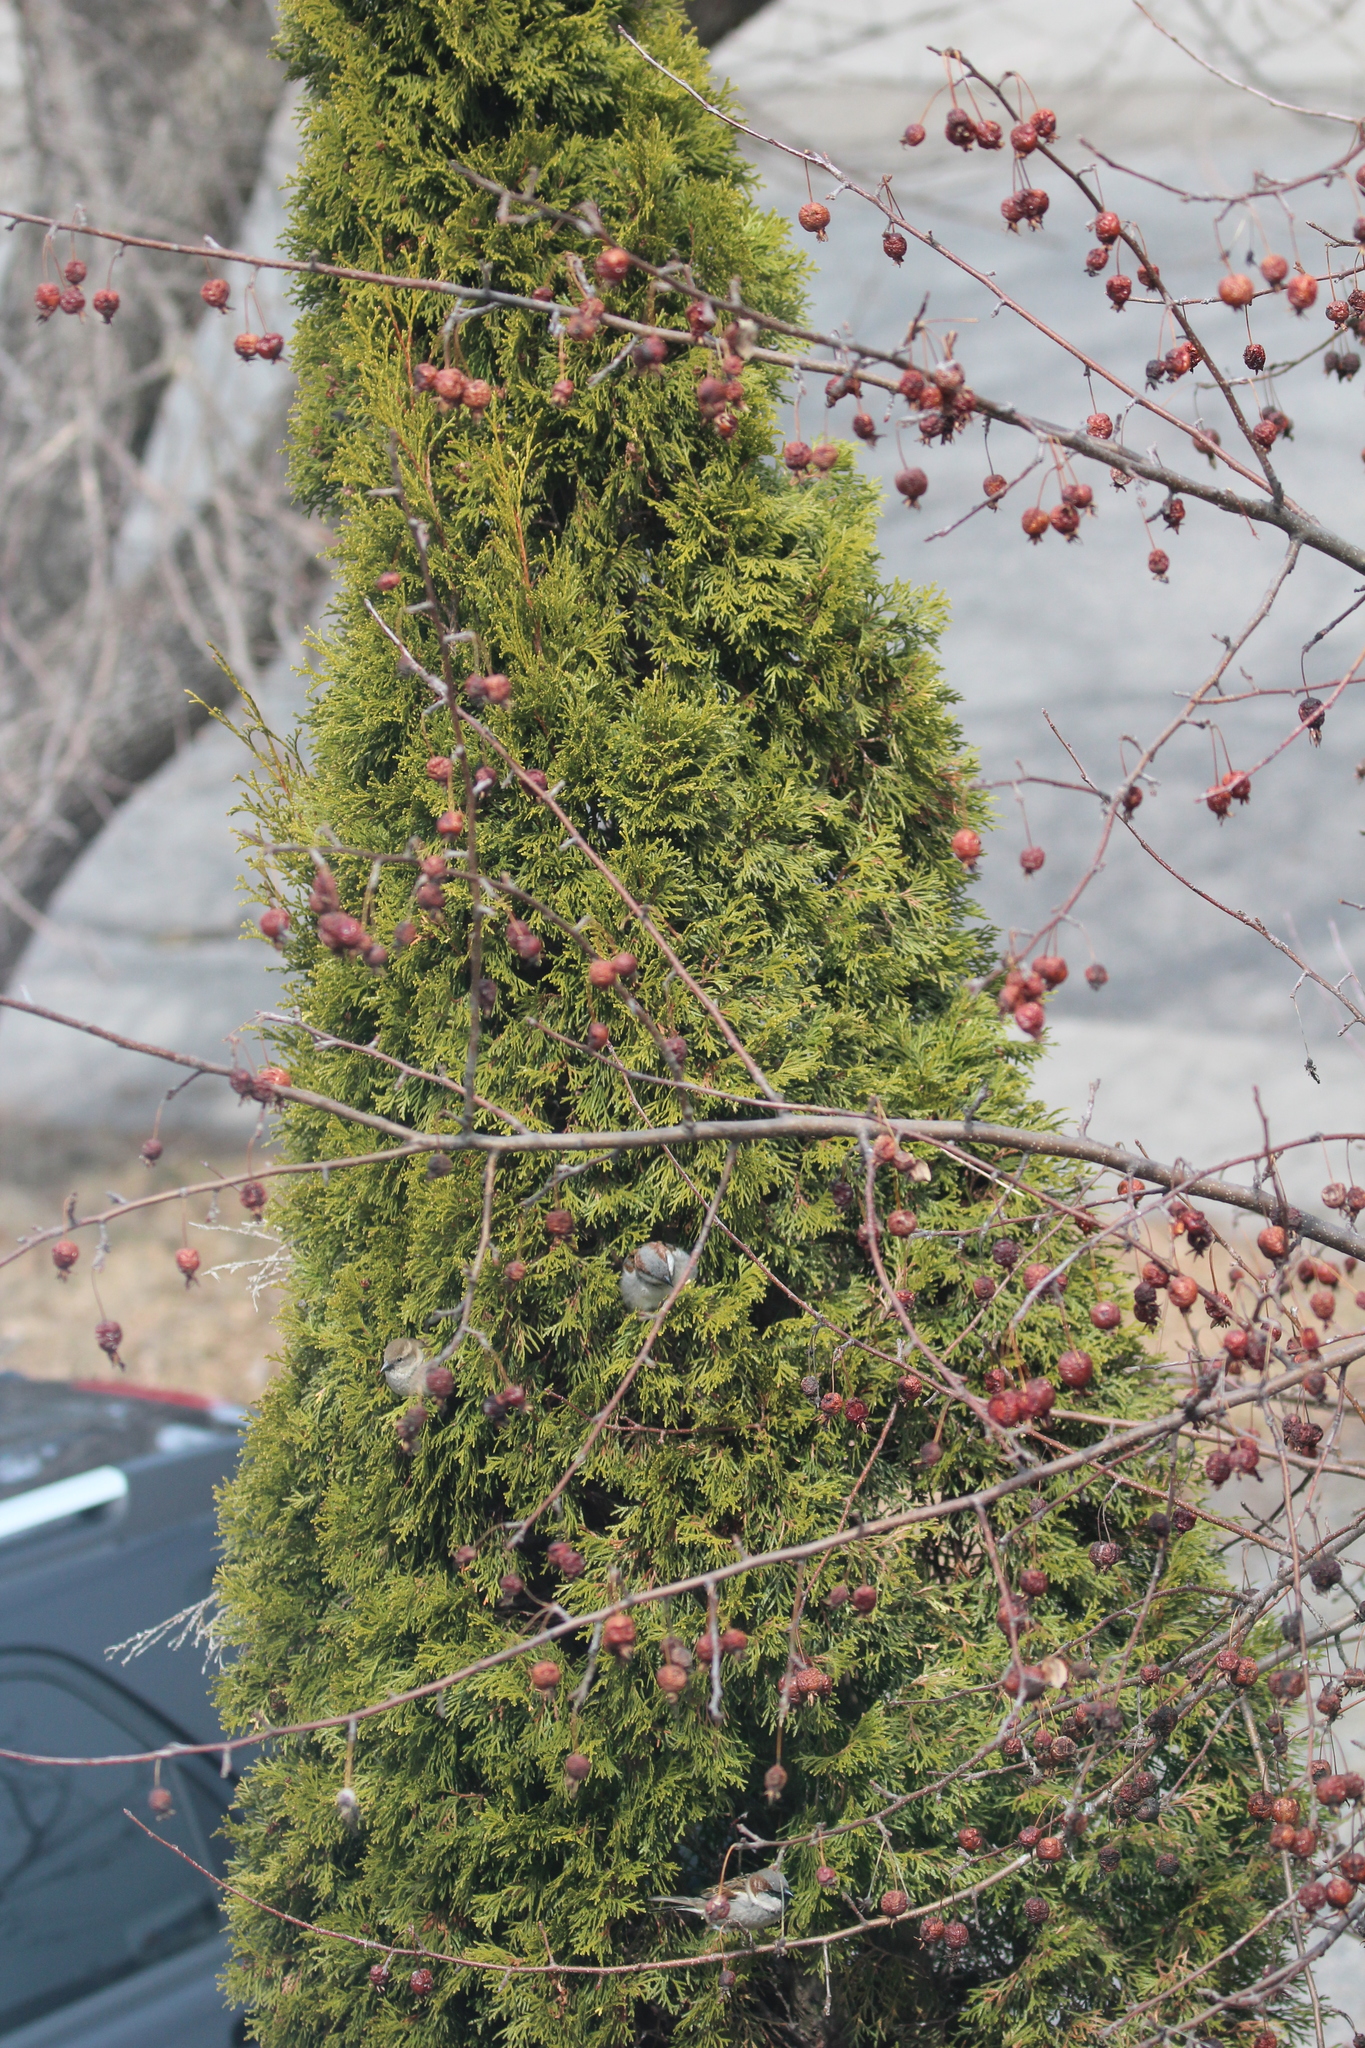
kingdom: Animalia
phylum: Chordata
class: Aves
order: Passeriformes
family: Passeridae
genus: Passer
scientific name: Passer domesticus
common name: House sparrow
